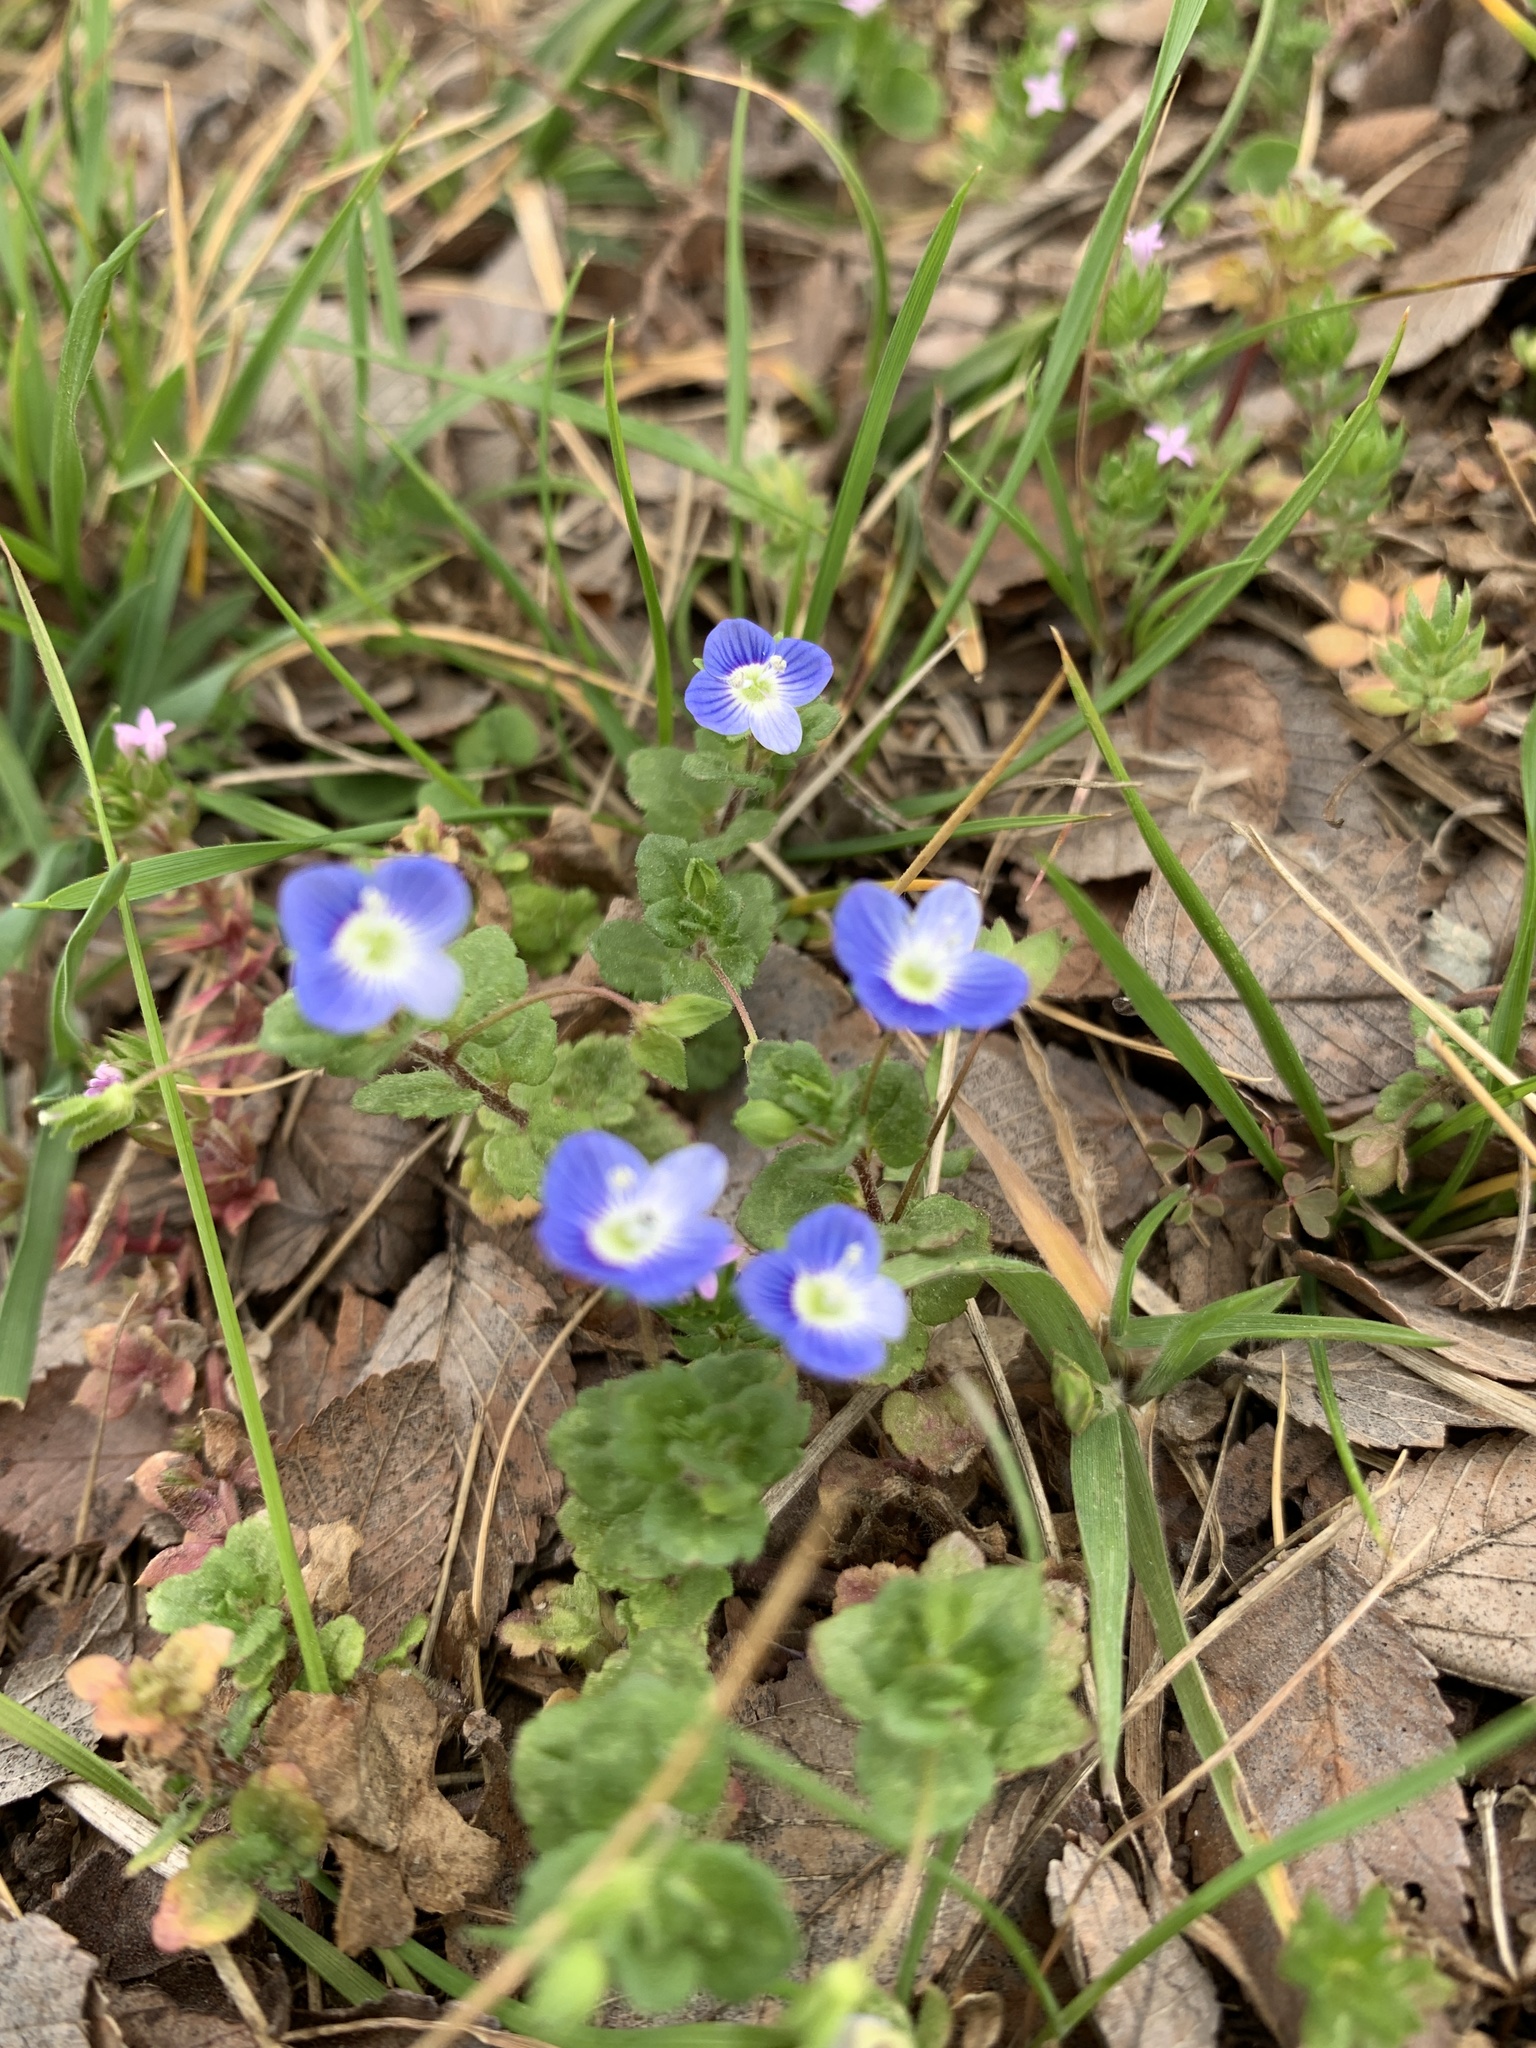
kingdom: Plantae
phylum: Tracheophyta
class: Magnoliopsida
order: Lamiales
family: Plantaginaceae
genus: Veronica
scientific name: Veronica persica
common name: Common field-speedwell
